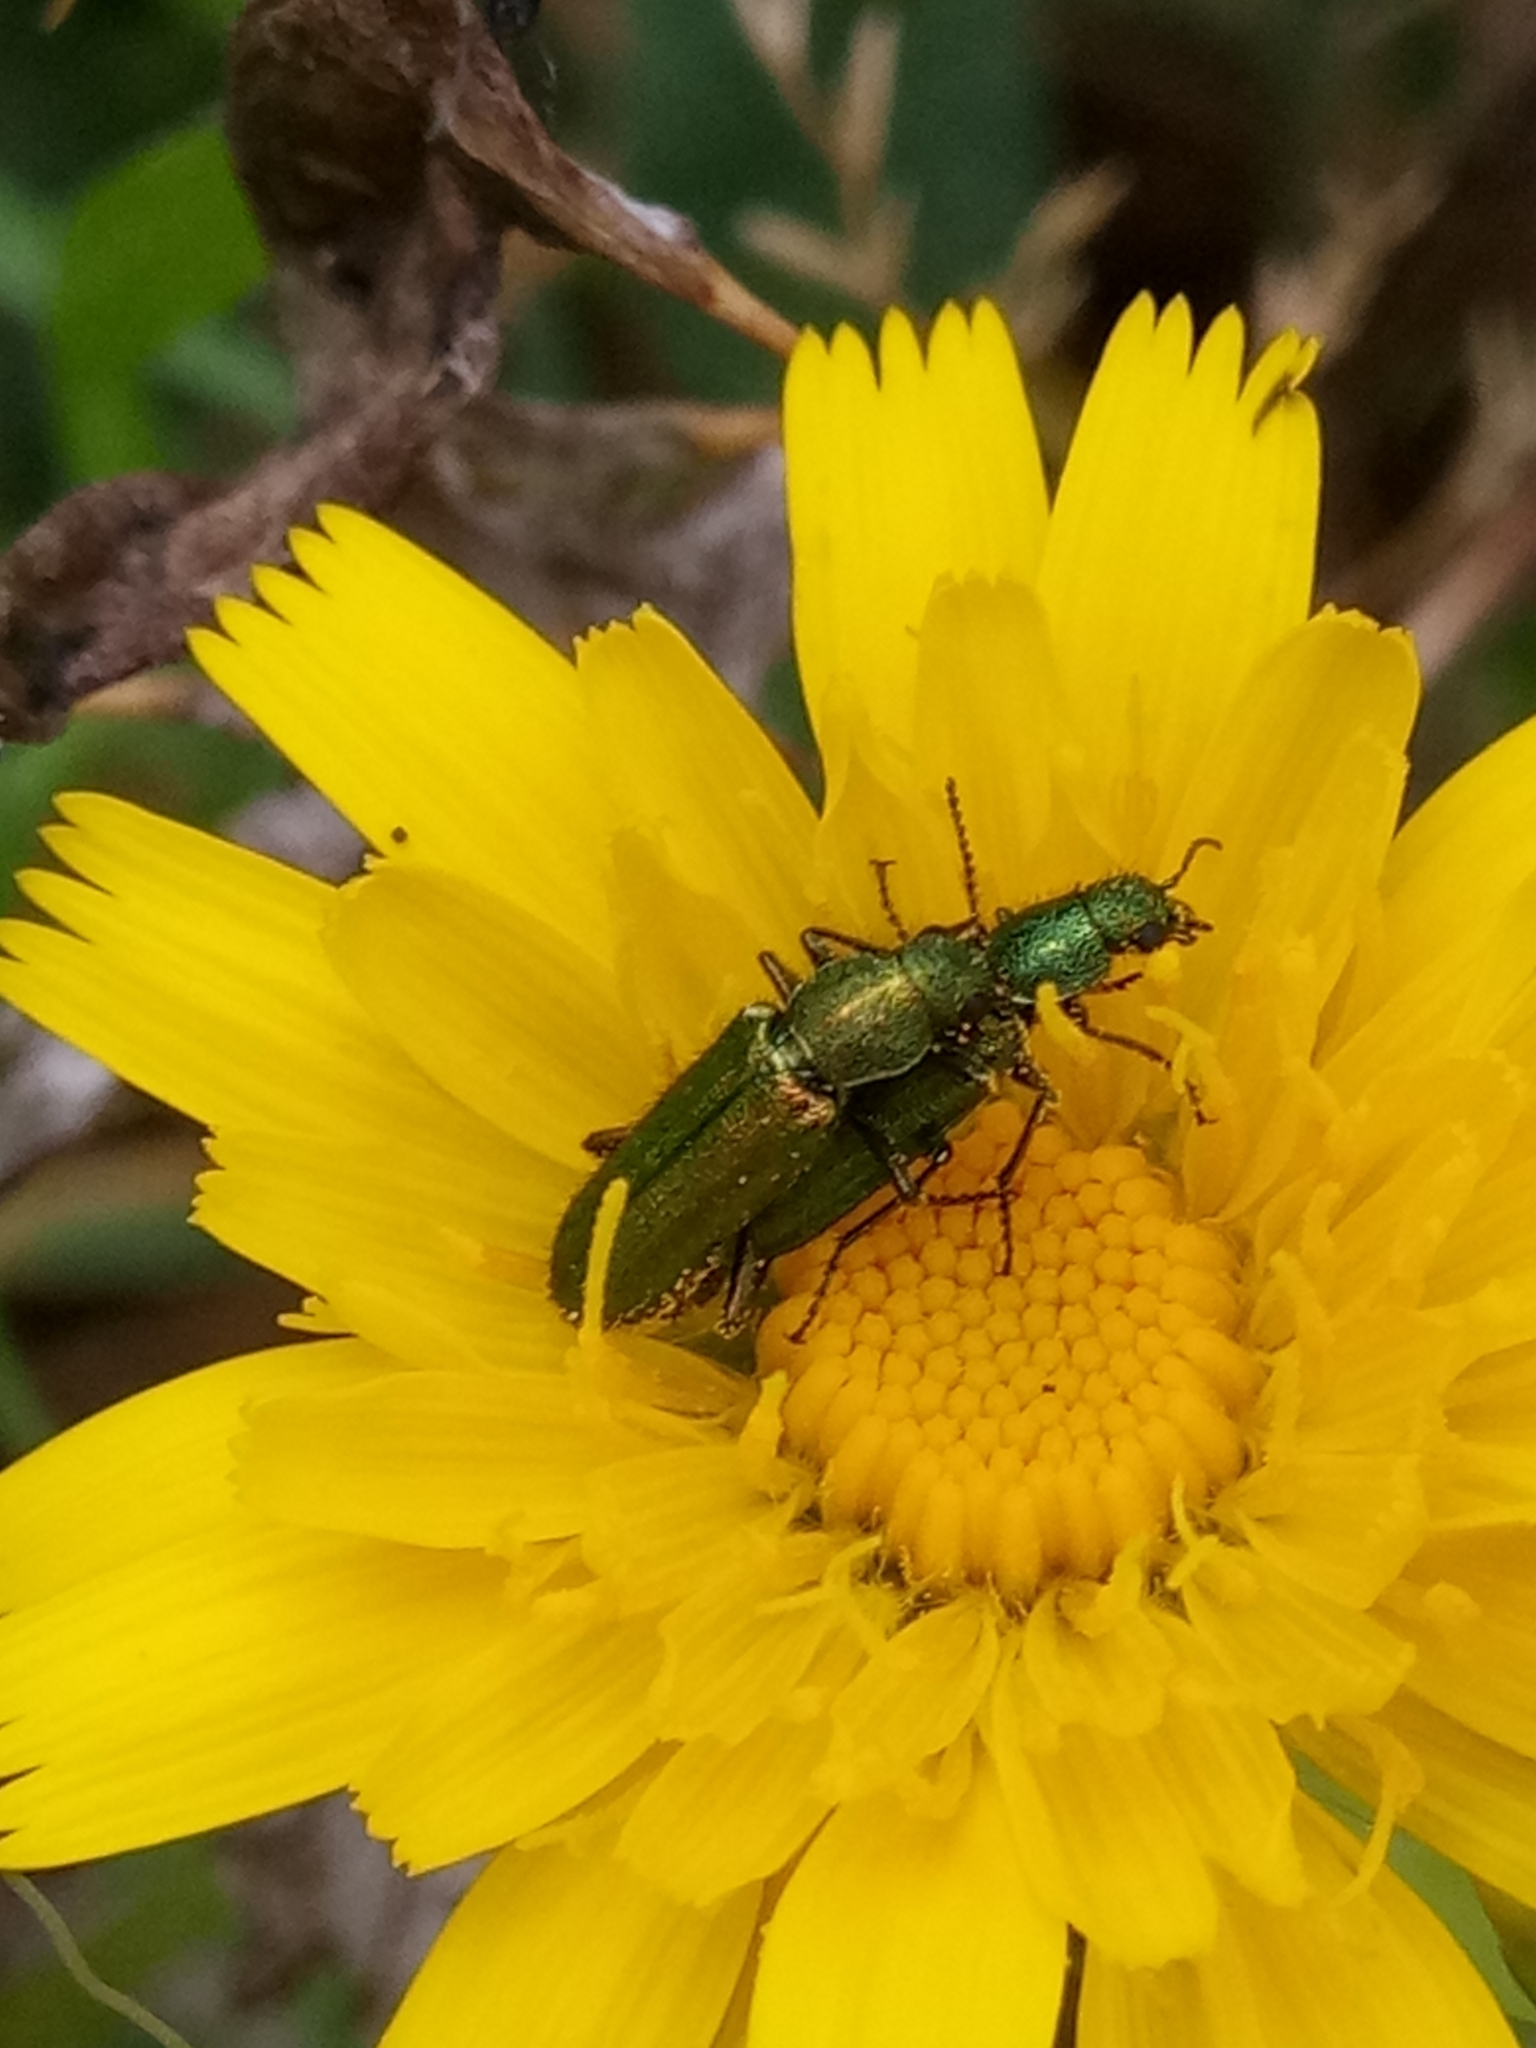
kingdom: Animalia
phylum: Arthropoda
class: Insecta
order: Coleoptera
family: Dasytidae
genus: Psilothrix
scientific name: Psilothrix viridicoerulea
